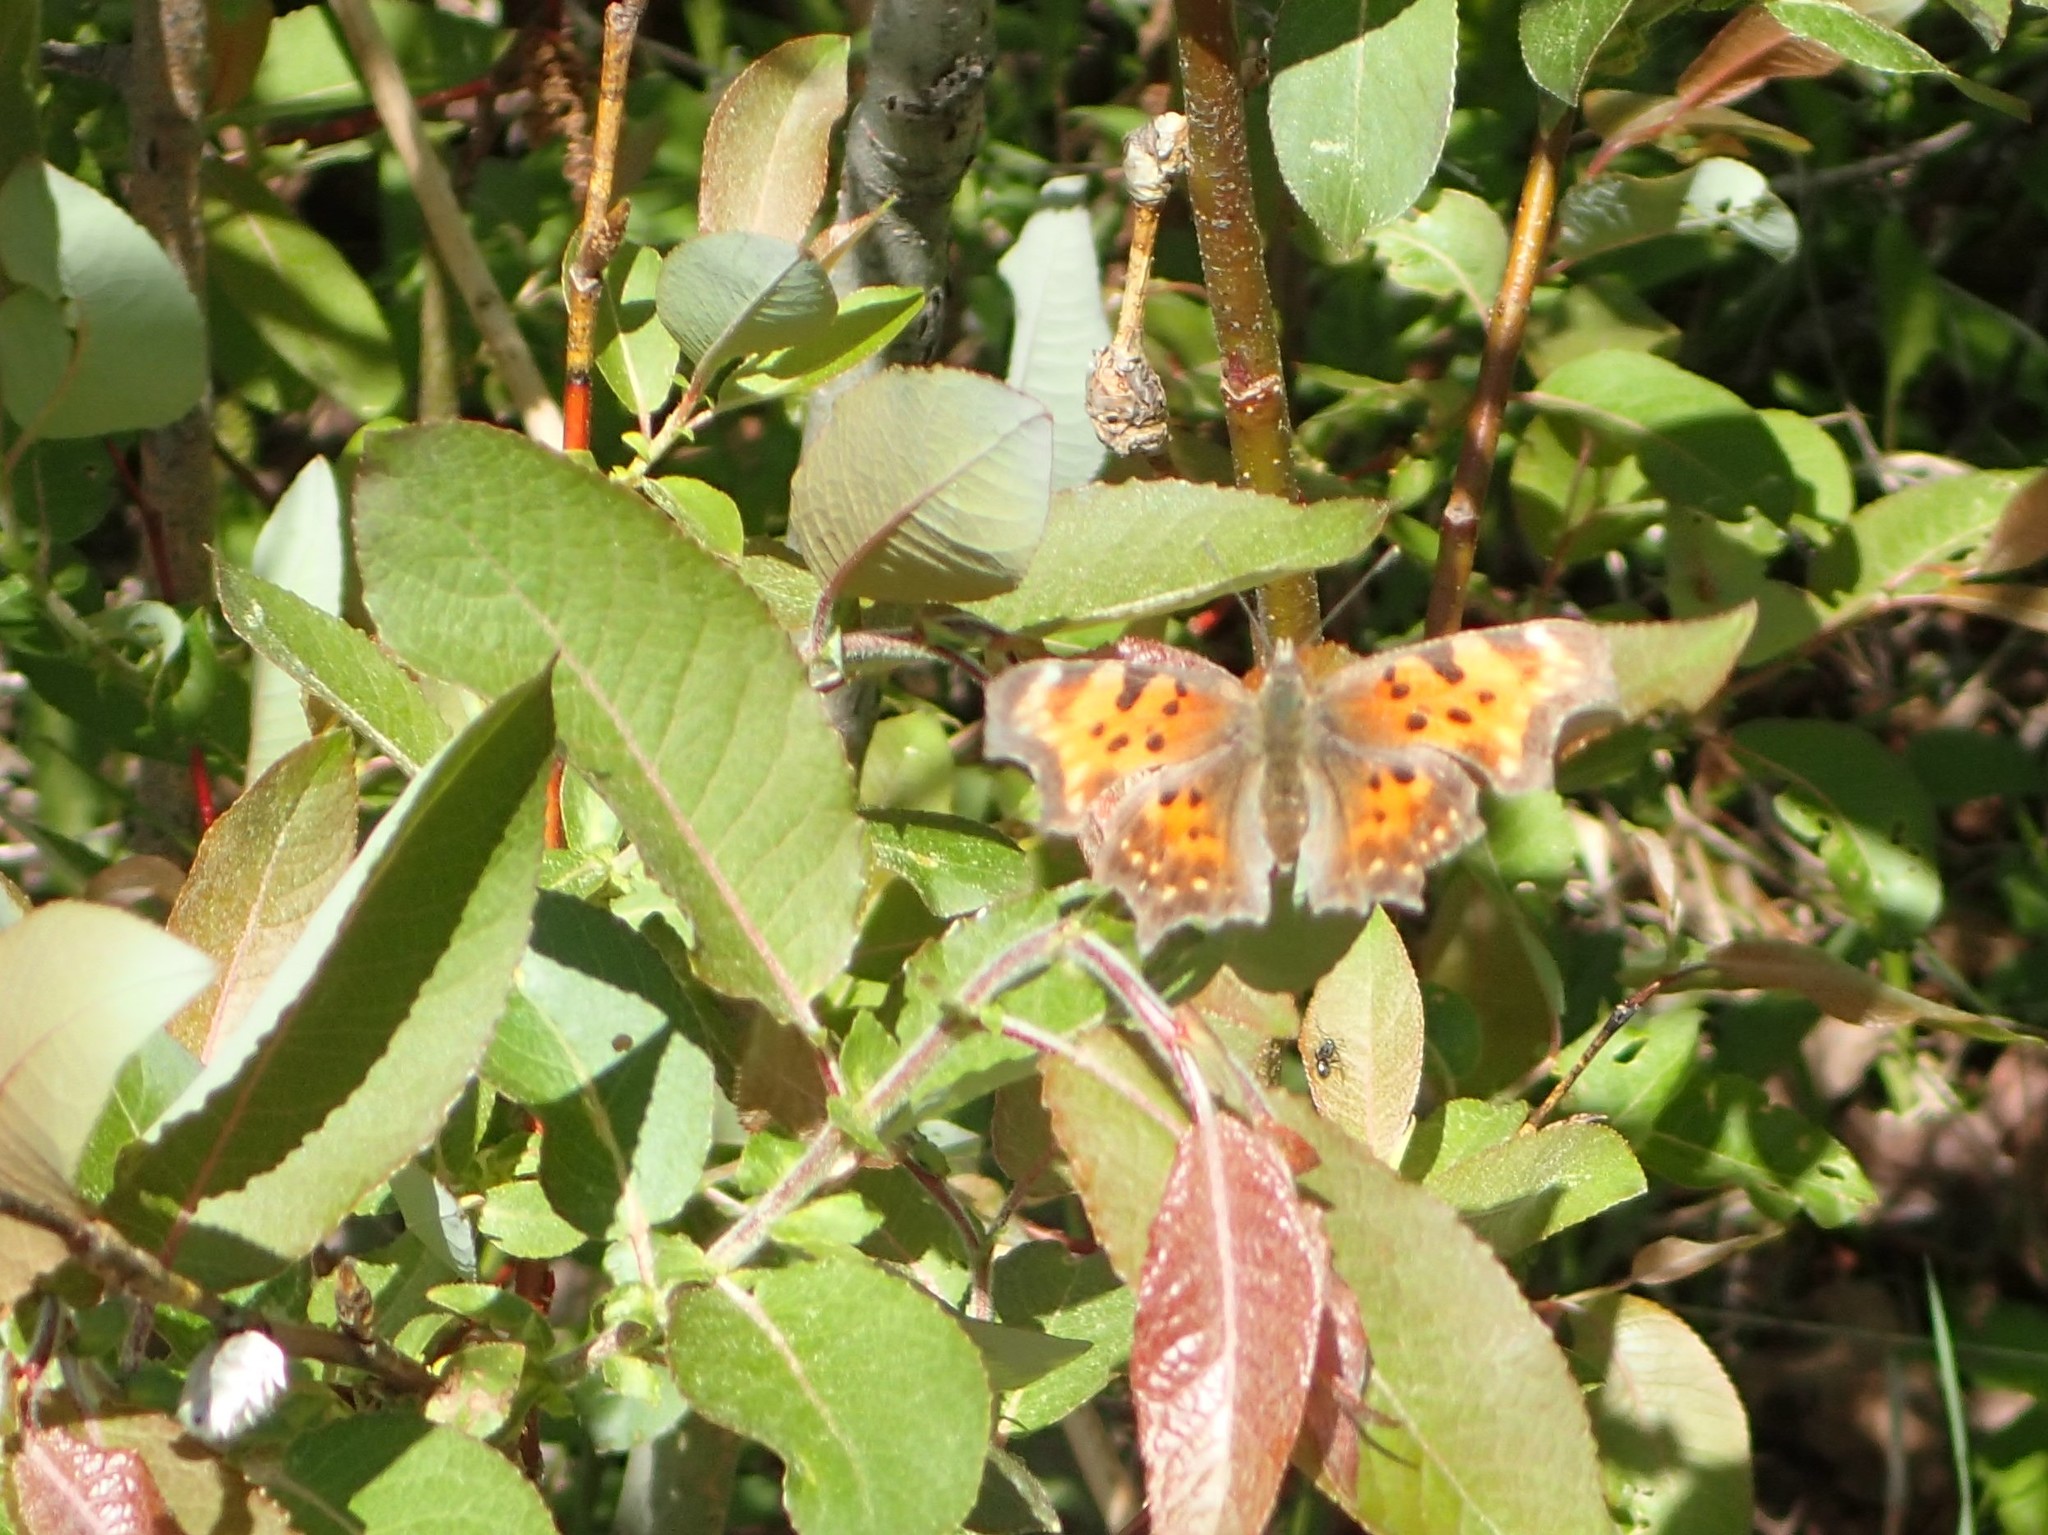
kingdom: Animalia
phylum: Arthropoda
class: Insecta
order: Lepidoptera
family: Nymphalidae
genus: Polygonia
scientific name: Polygonia faunus
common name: Green comma
